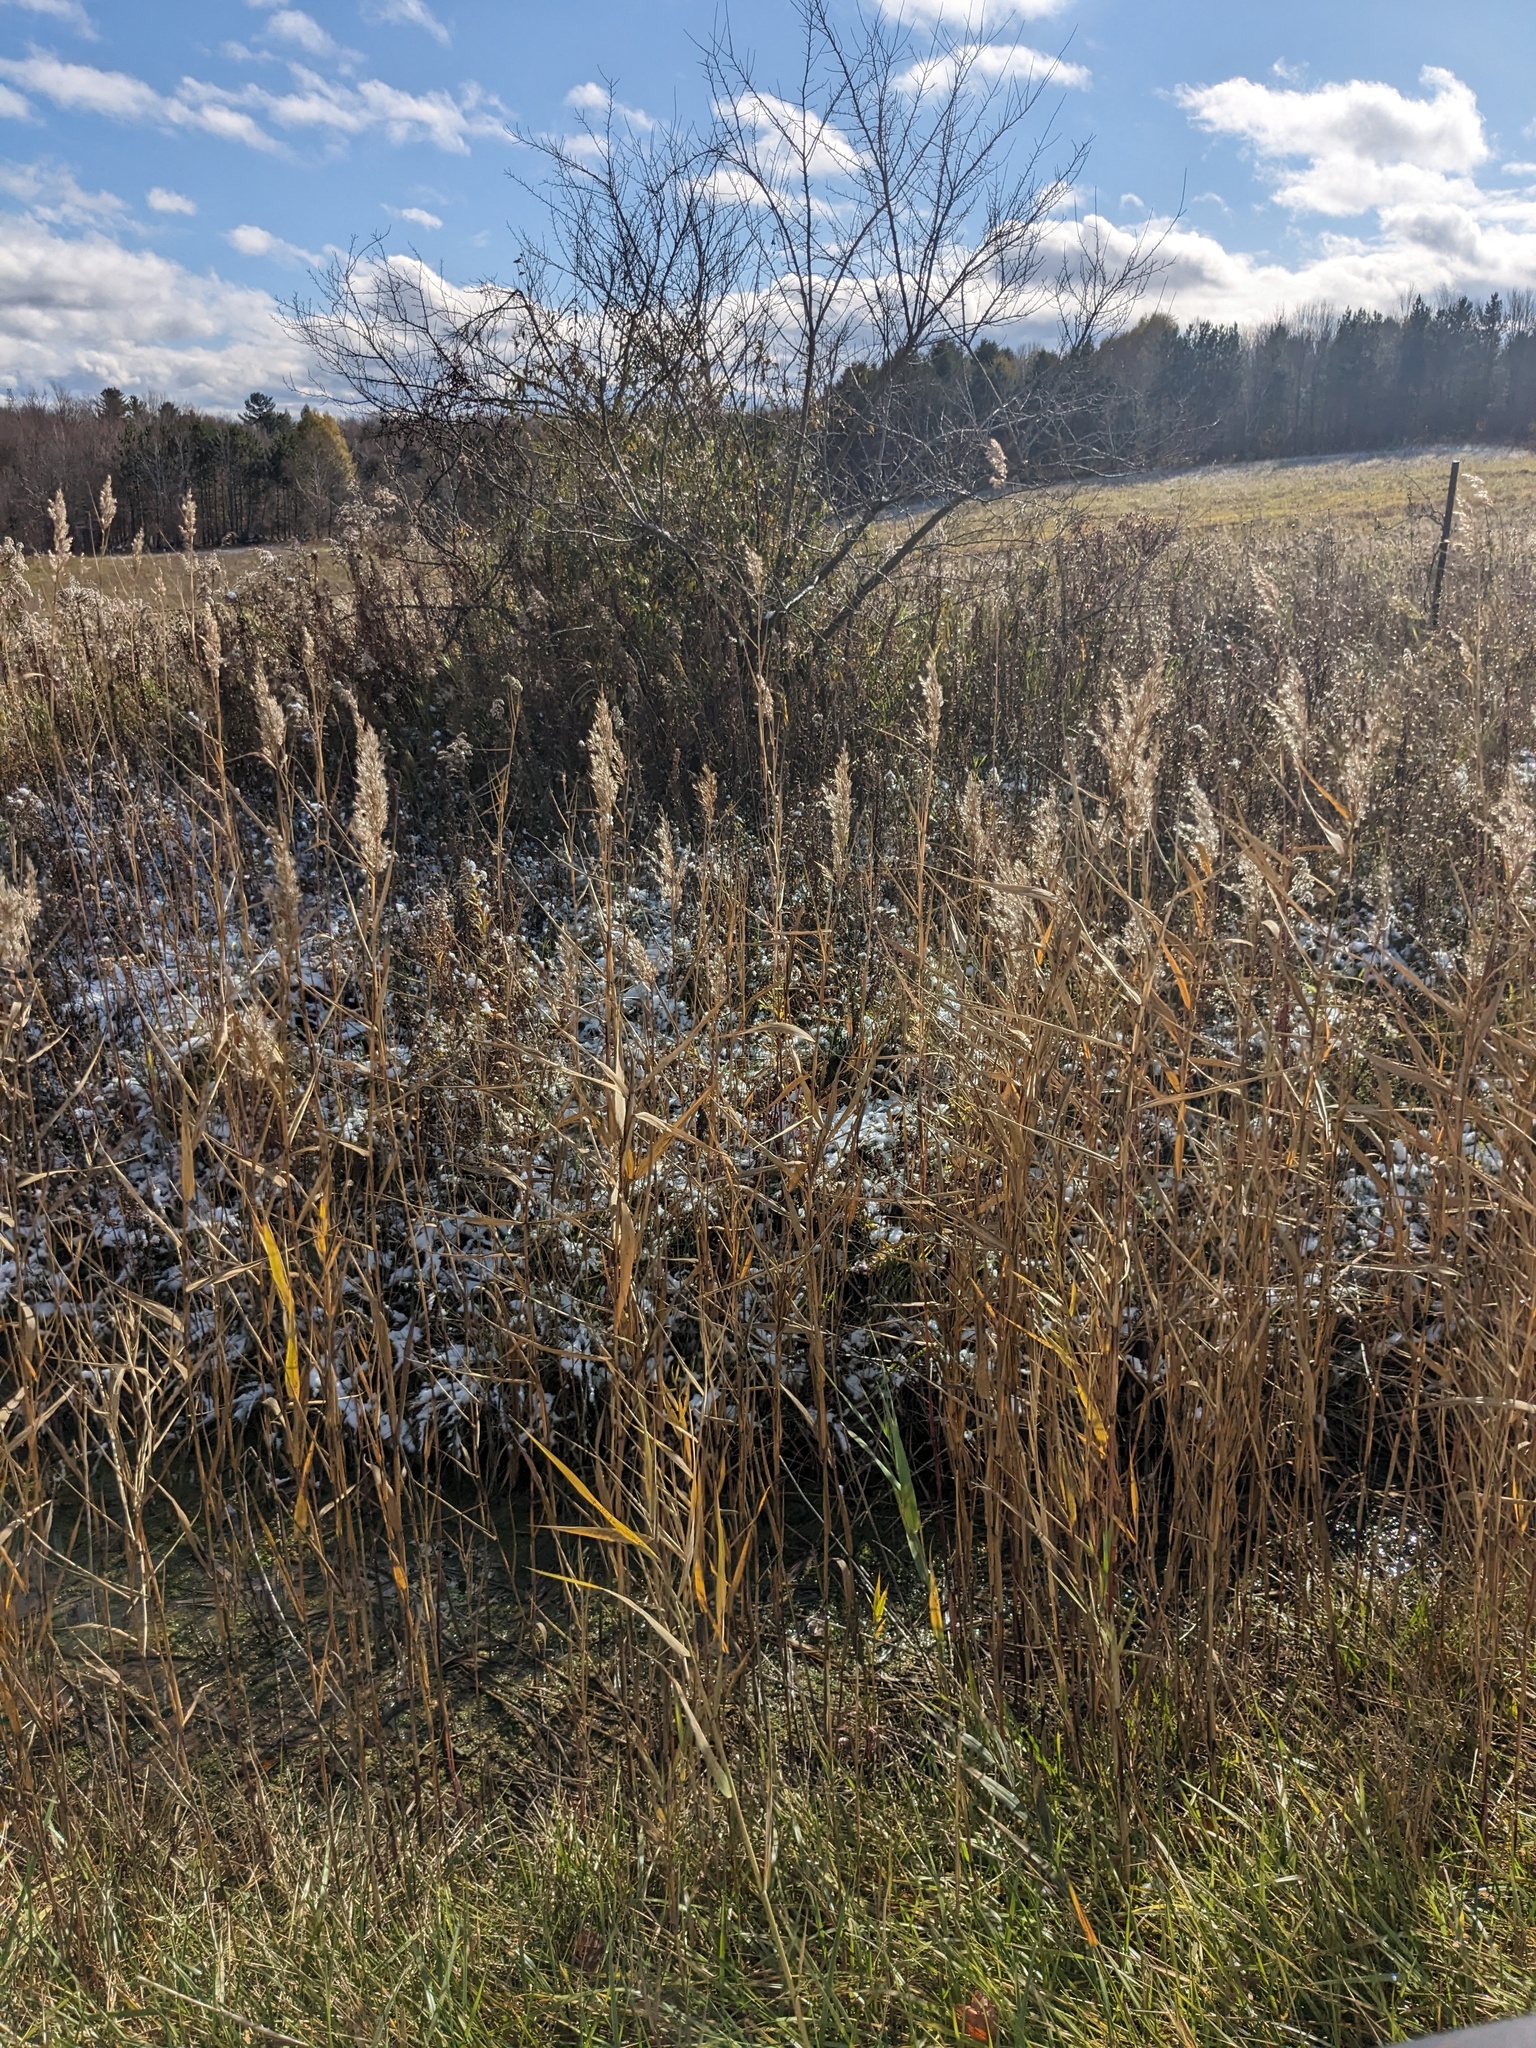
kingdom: Plantae
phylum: Tracheophyta
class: Liliopsida
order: Poales
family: Poaceae
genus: Phragmites
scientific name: Phragmites australis
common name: Common reed
